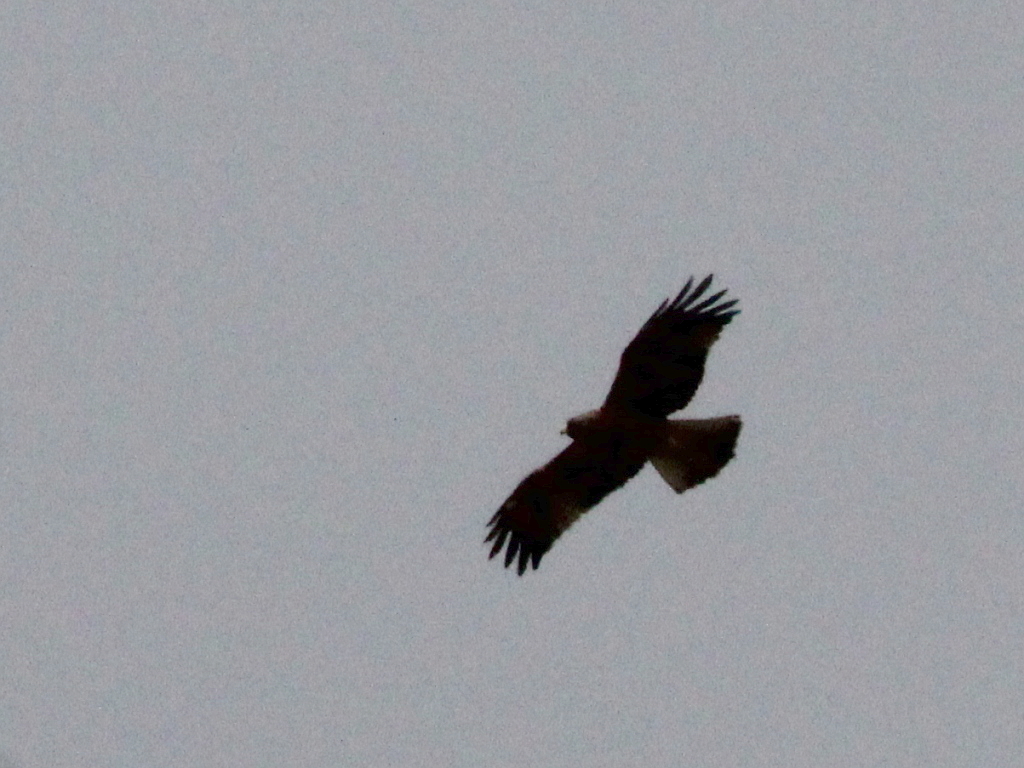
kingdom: Animalia
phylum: Chordata
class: Aves
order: Accipitriformes
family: Accipitridae
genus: Hieraaetus
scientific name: Hieraaetus pennatus
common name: Booted eagle
